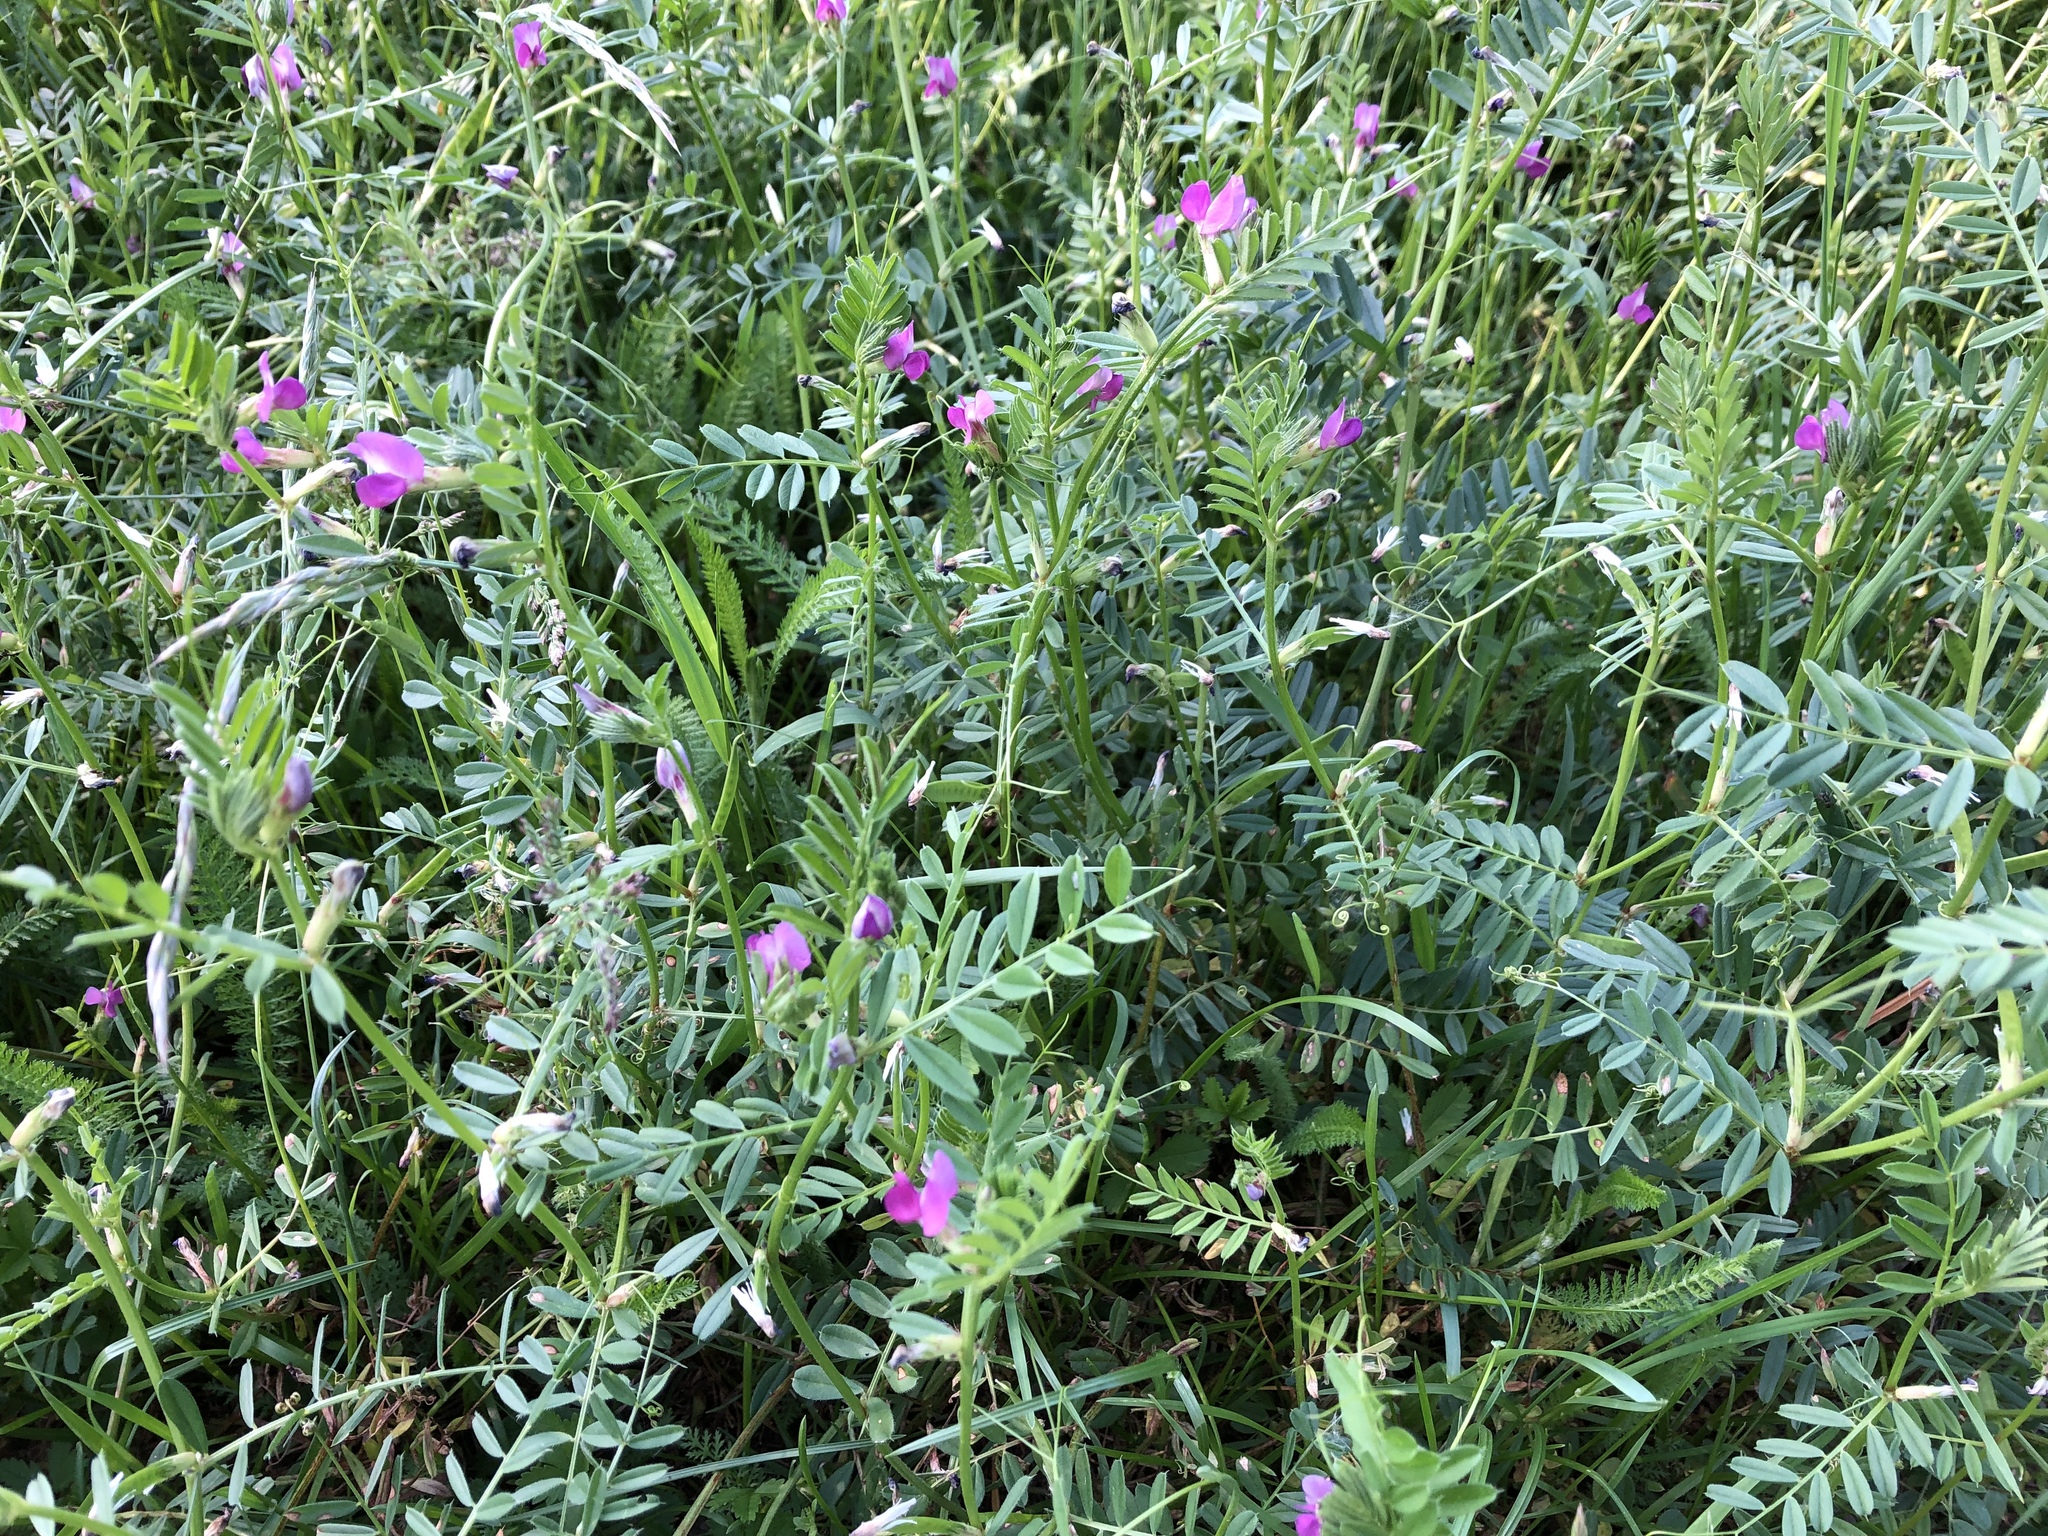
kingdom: Plantae
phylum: Tracheophyta
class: Magnoliopsida
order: Fabales
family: Fabaceae
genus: Vicia
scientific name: Vicia sativa
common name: Garden vetch
